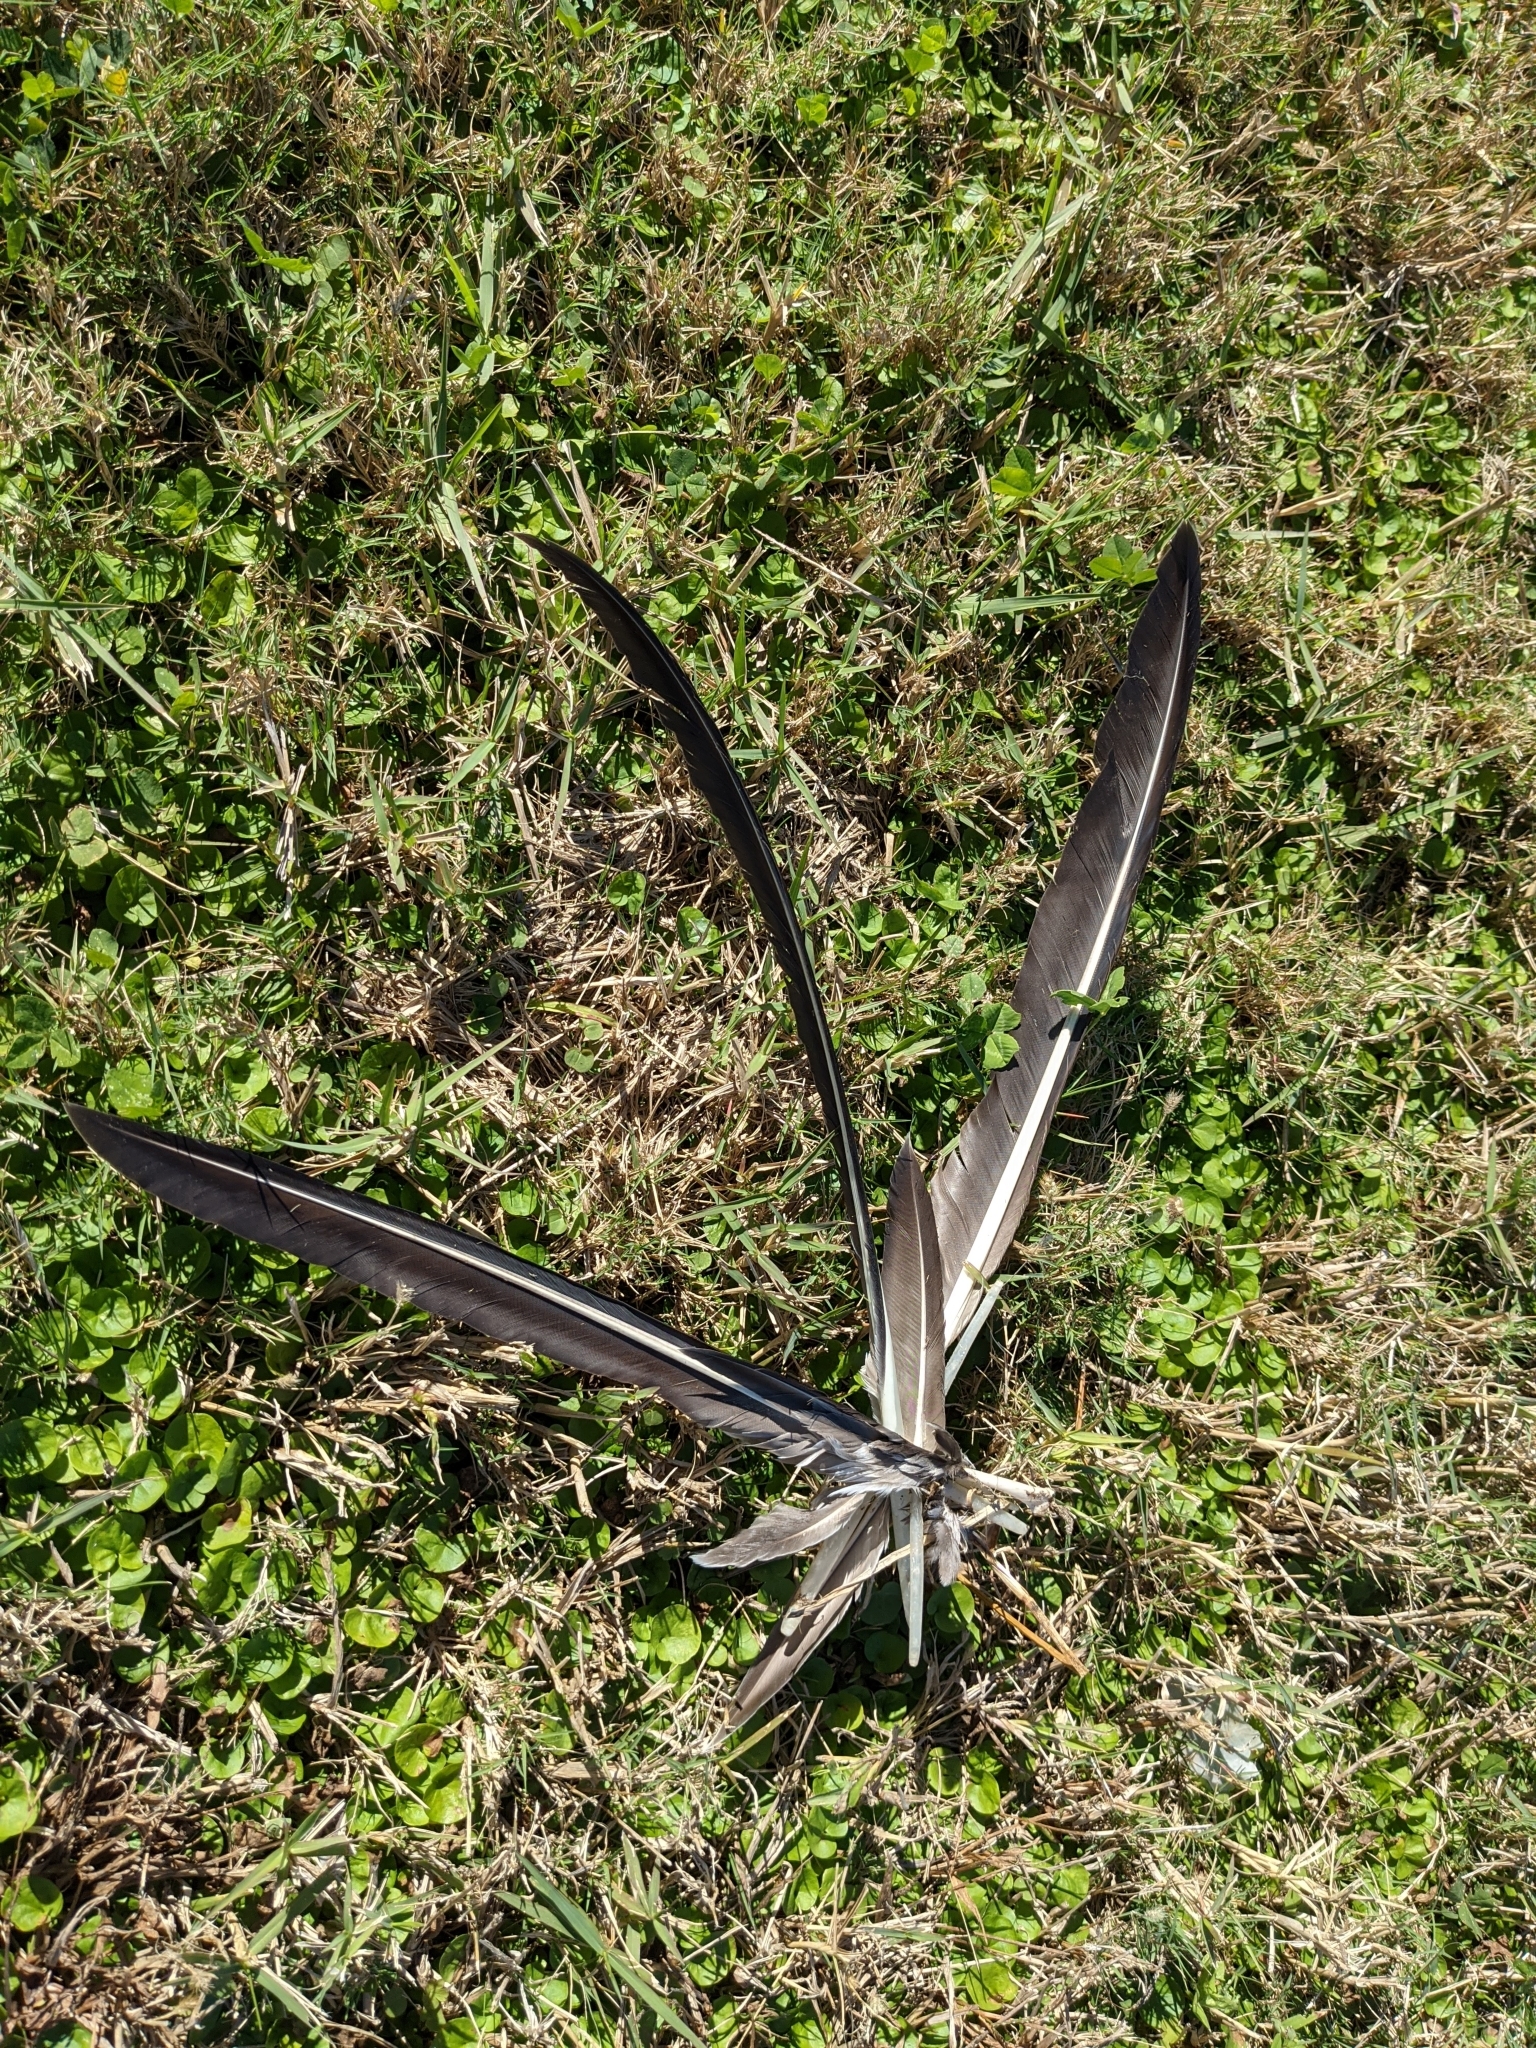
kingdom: Animalia
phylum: Chordata
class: Aves
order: Pelecaniformes
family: Pelecanidae
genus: Pelecanus
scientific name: Pelecanus occidentalis
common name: Brown pelican
